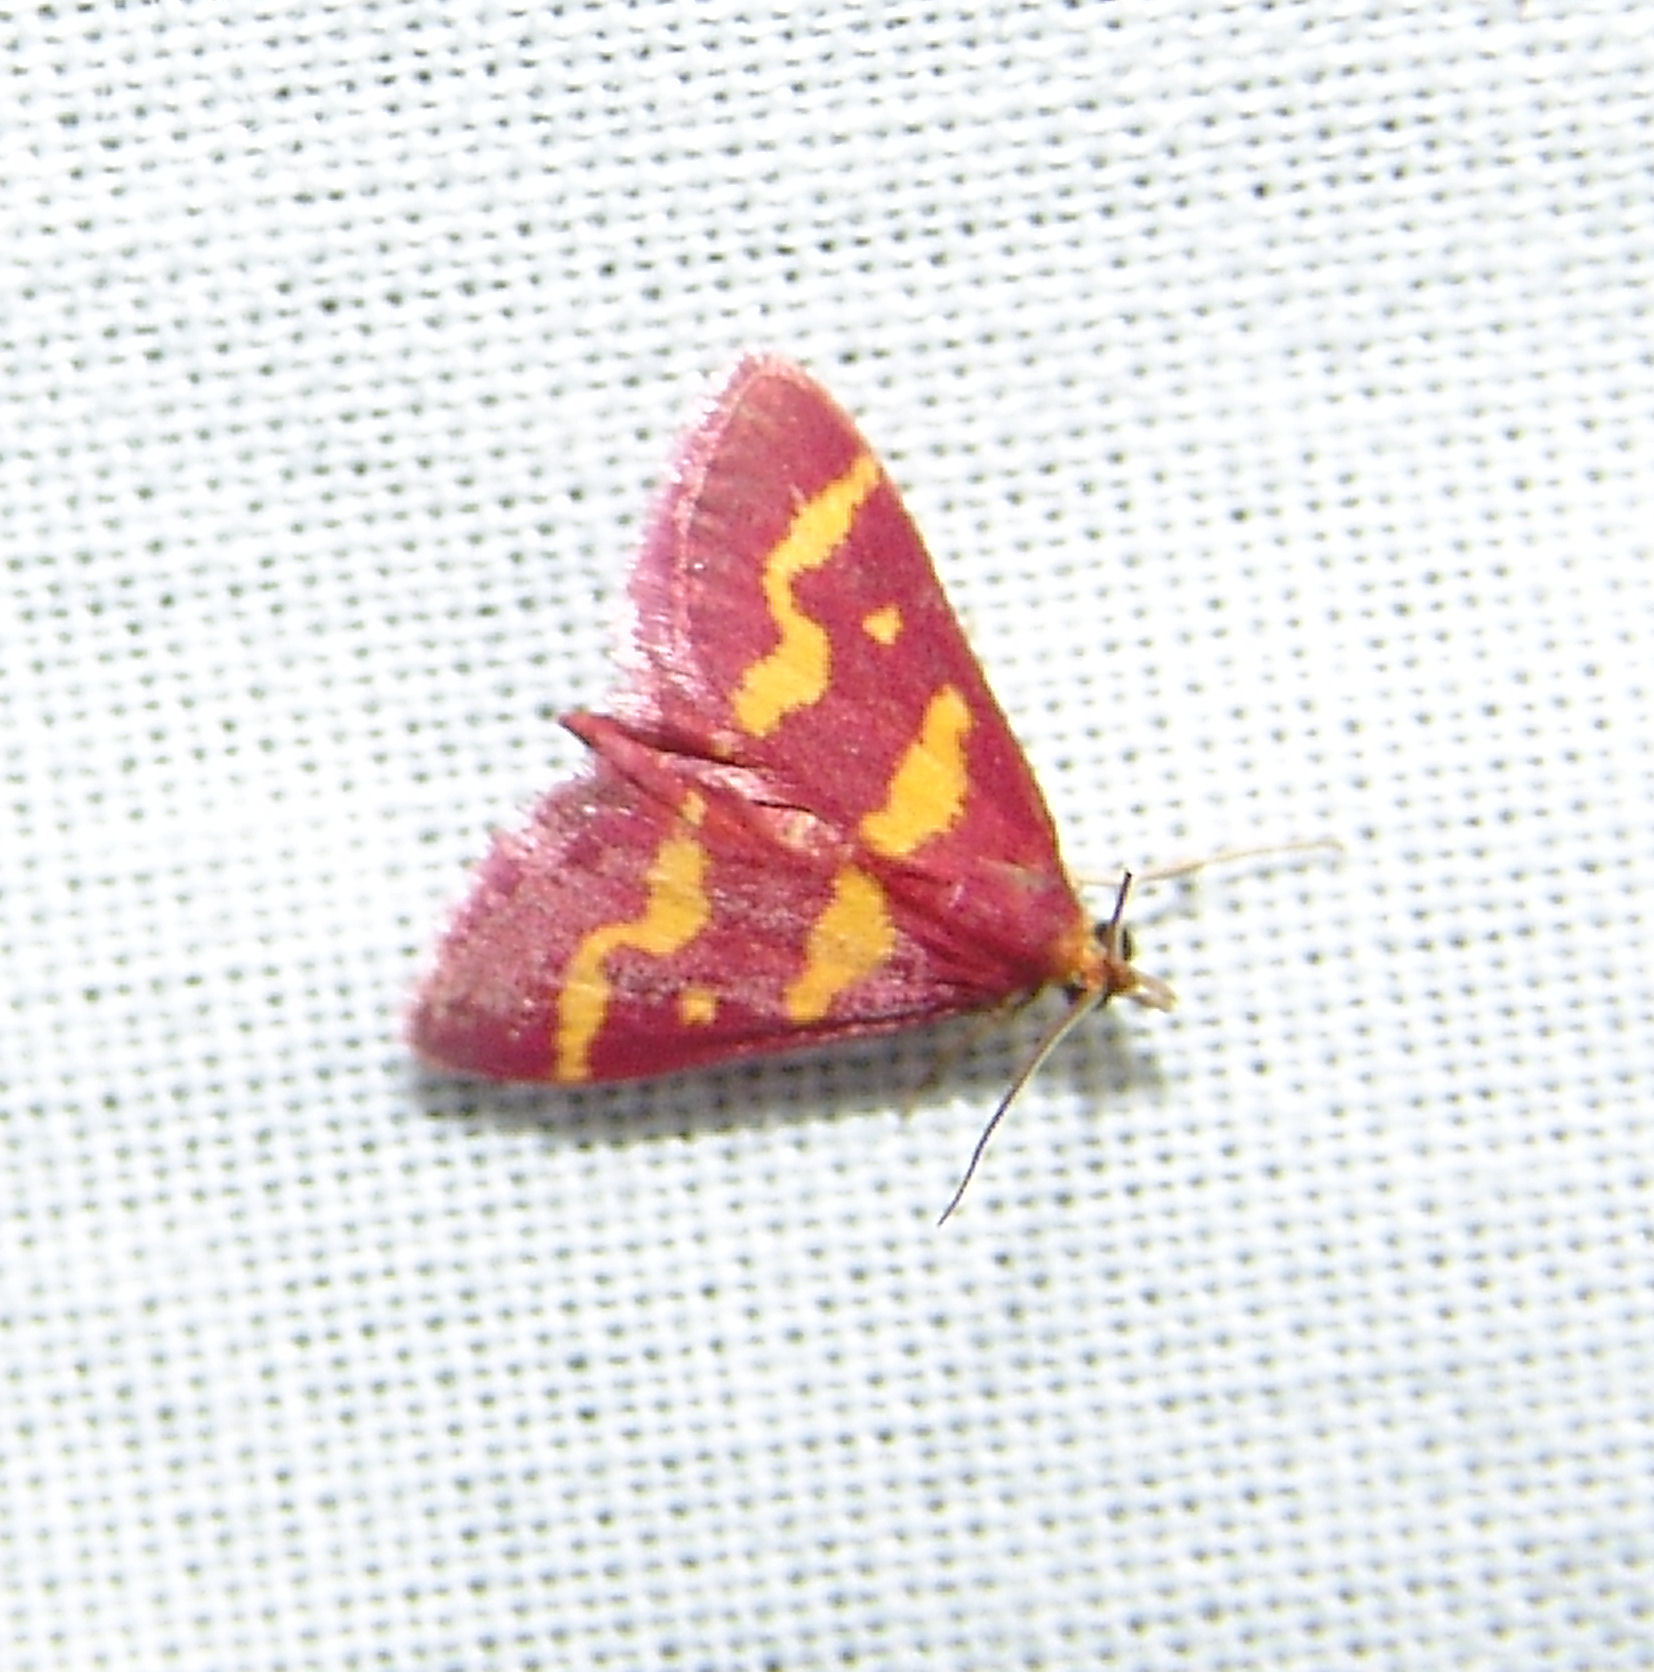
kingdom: Animalia
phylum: Arthropoda
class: Insecta
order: Lepidoptera
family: Crambidae
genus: Pyrausta
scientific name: Pyrausta tyralis
